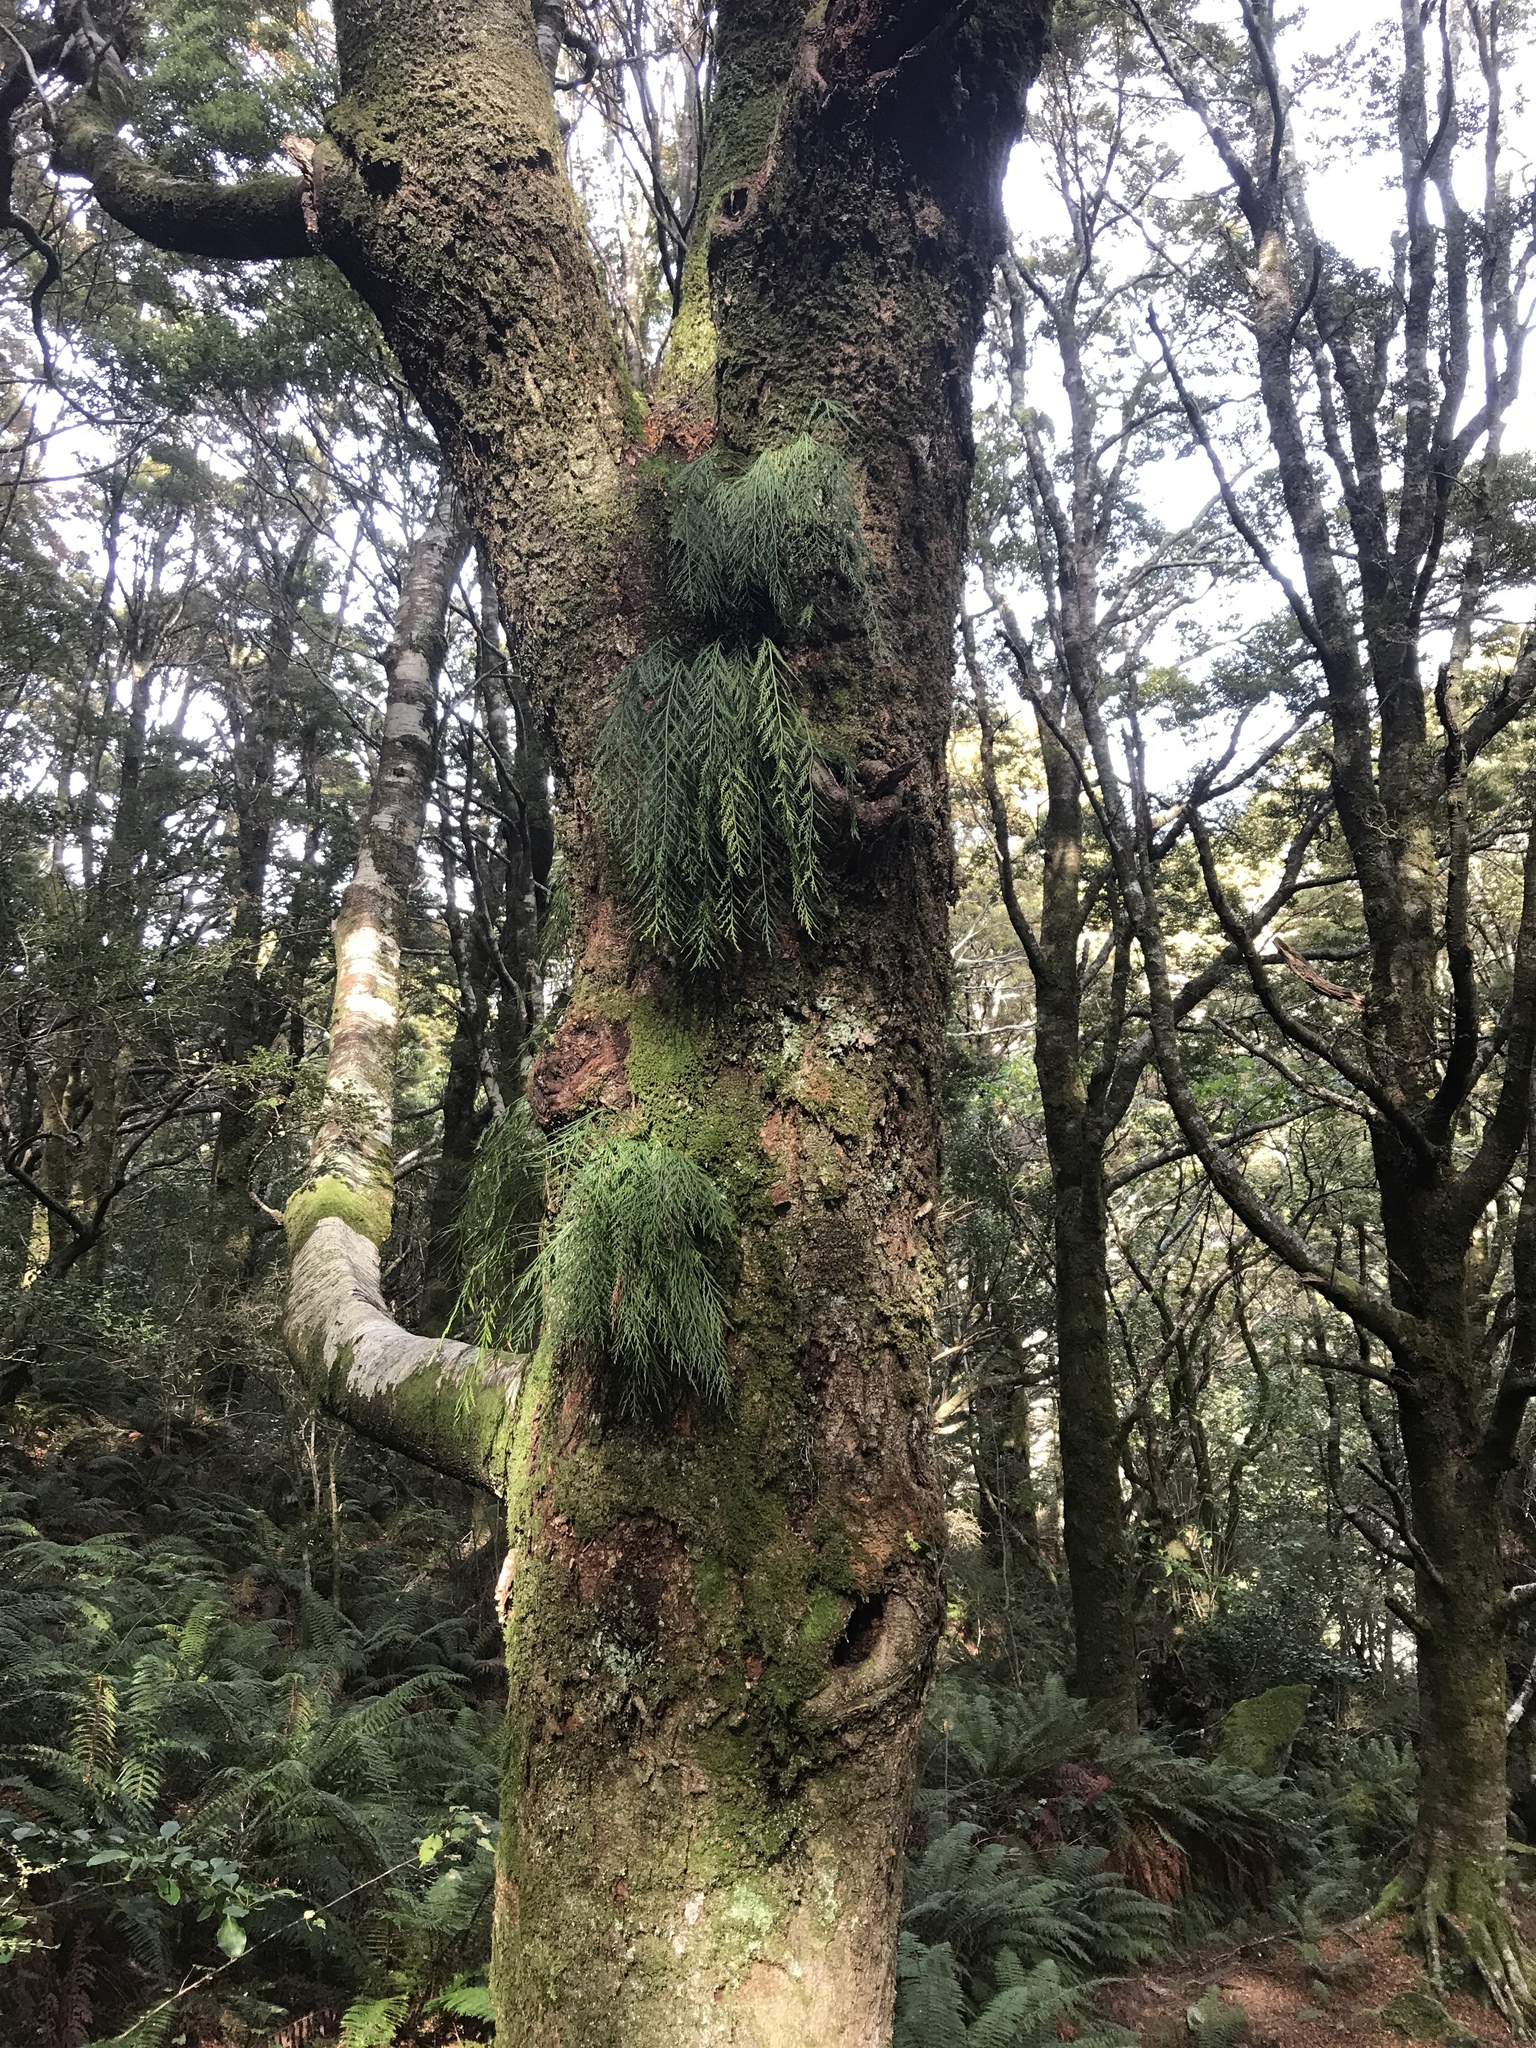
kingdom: Plantae
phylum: Tracheophyta
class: Polypodiopsida
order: Polypodiales
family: Aspleniaceae
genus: Asplenium
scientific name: Asplenium flaccidum
